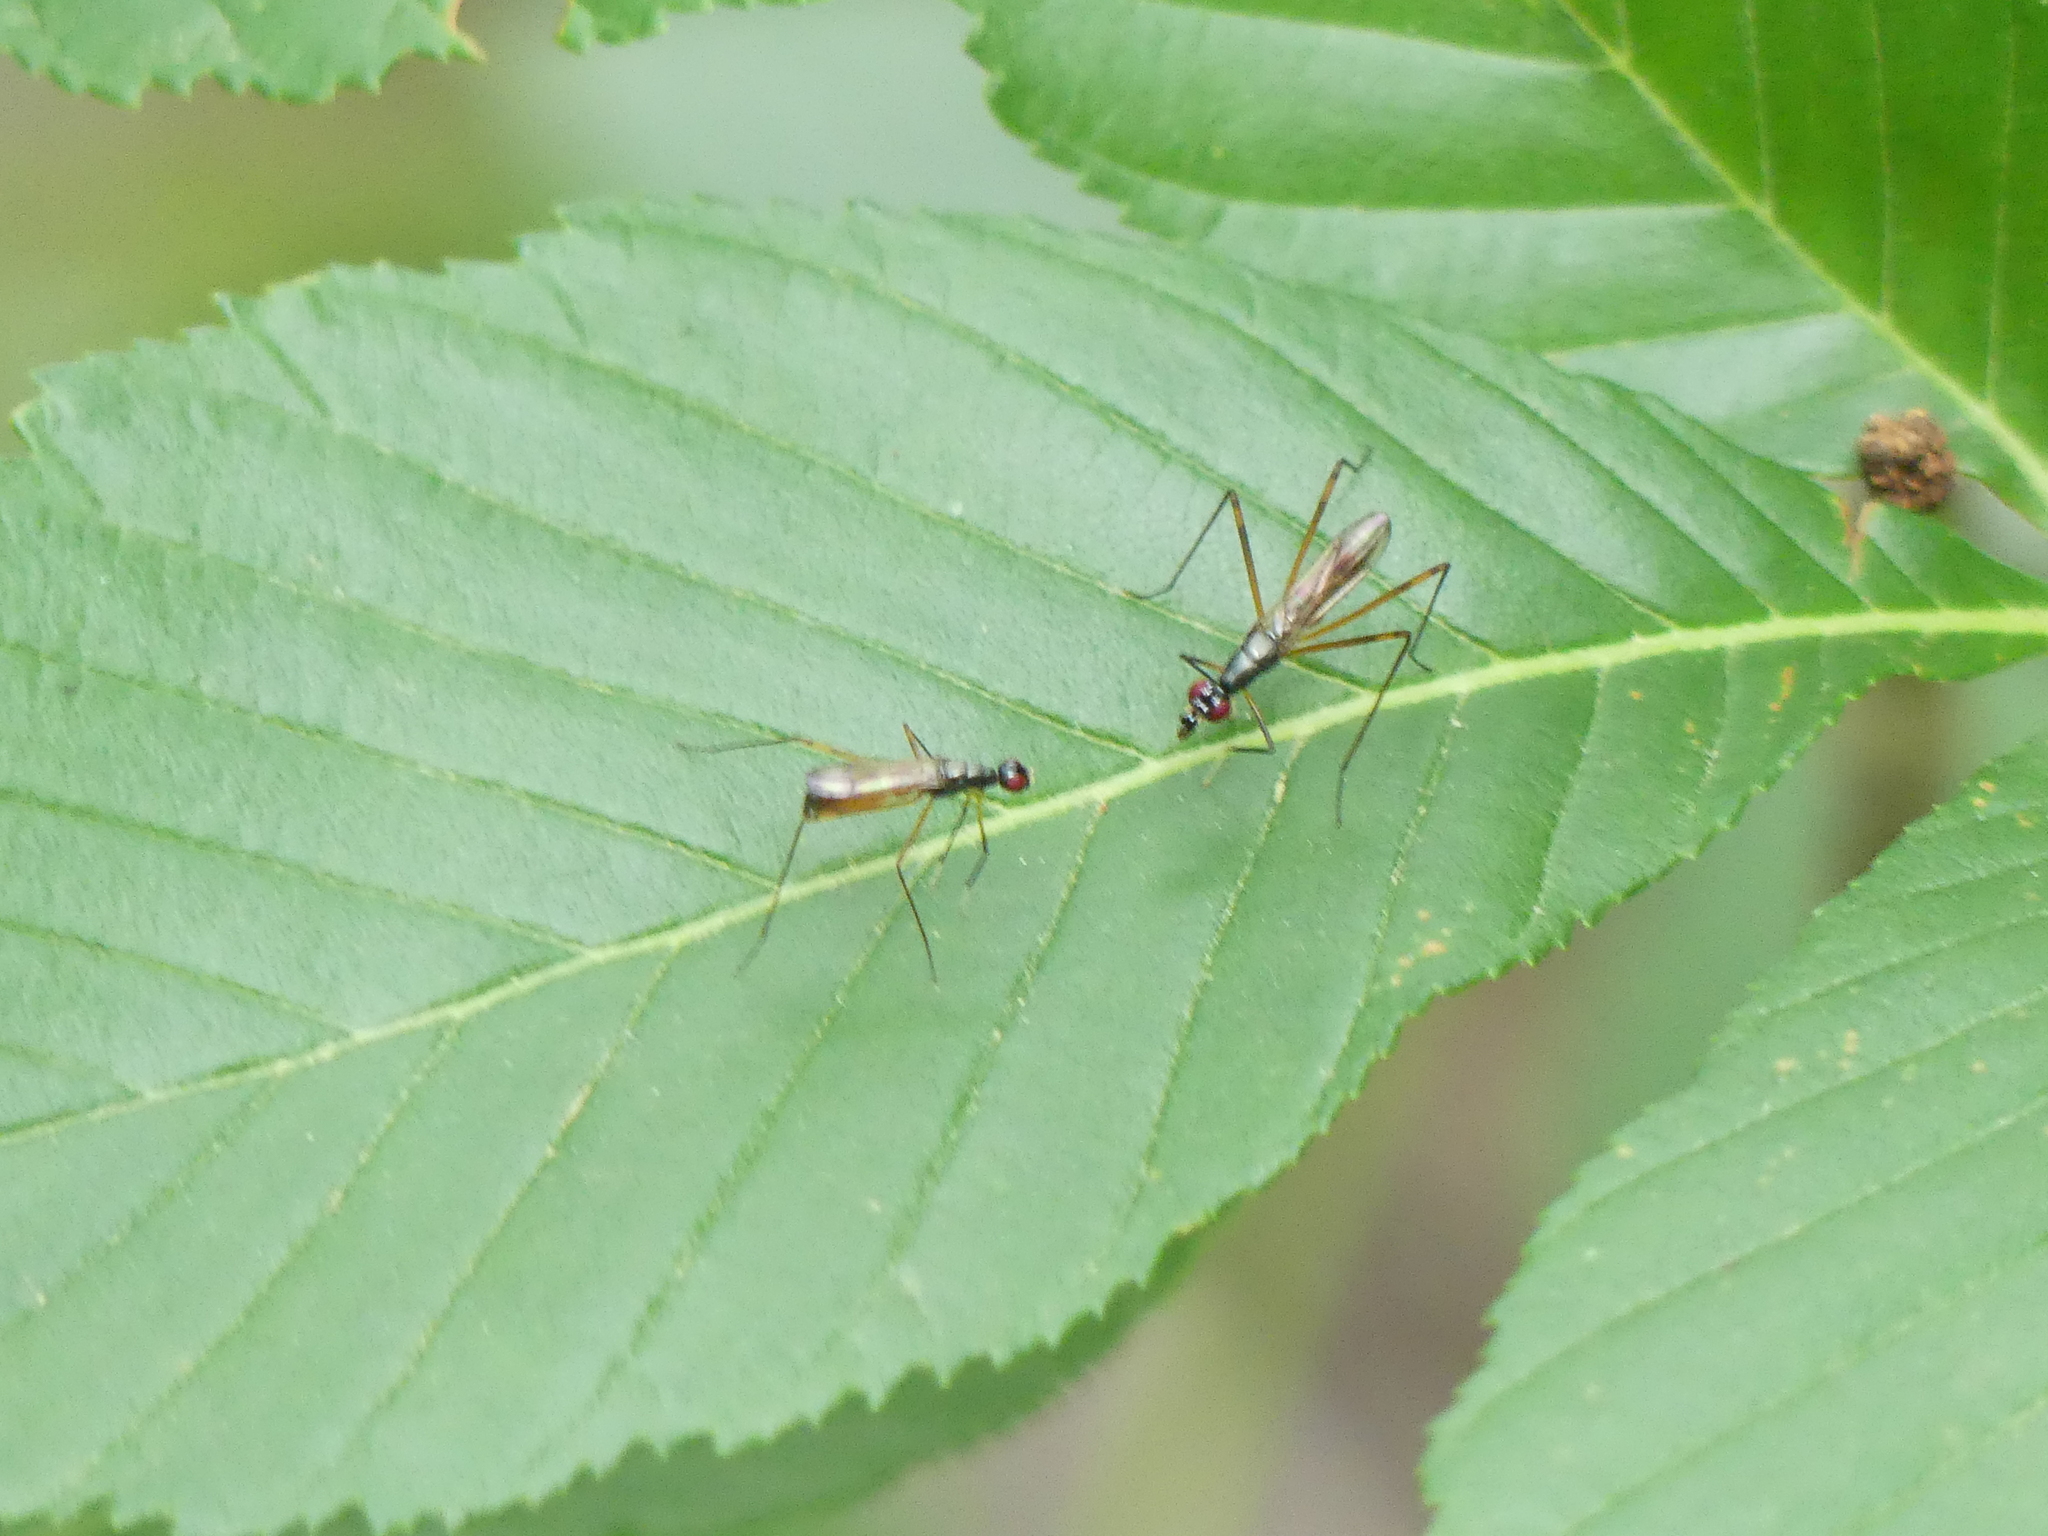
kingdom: Animalia
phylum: Arthropoda
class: Insecta
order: Diptera
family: Micropezidae
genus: Rainieria
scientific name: Rainieria antennaepes
